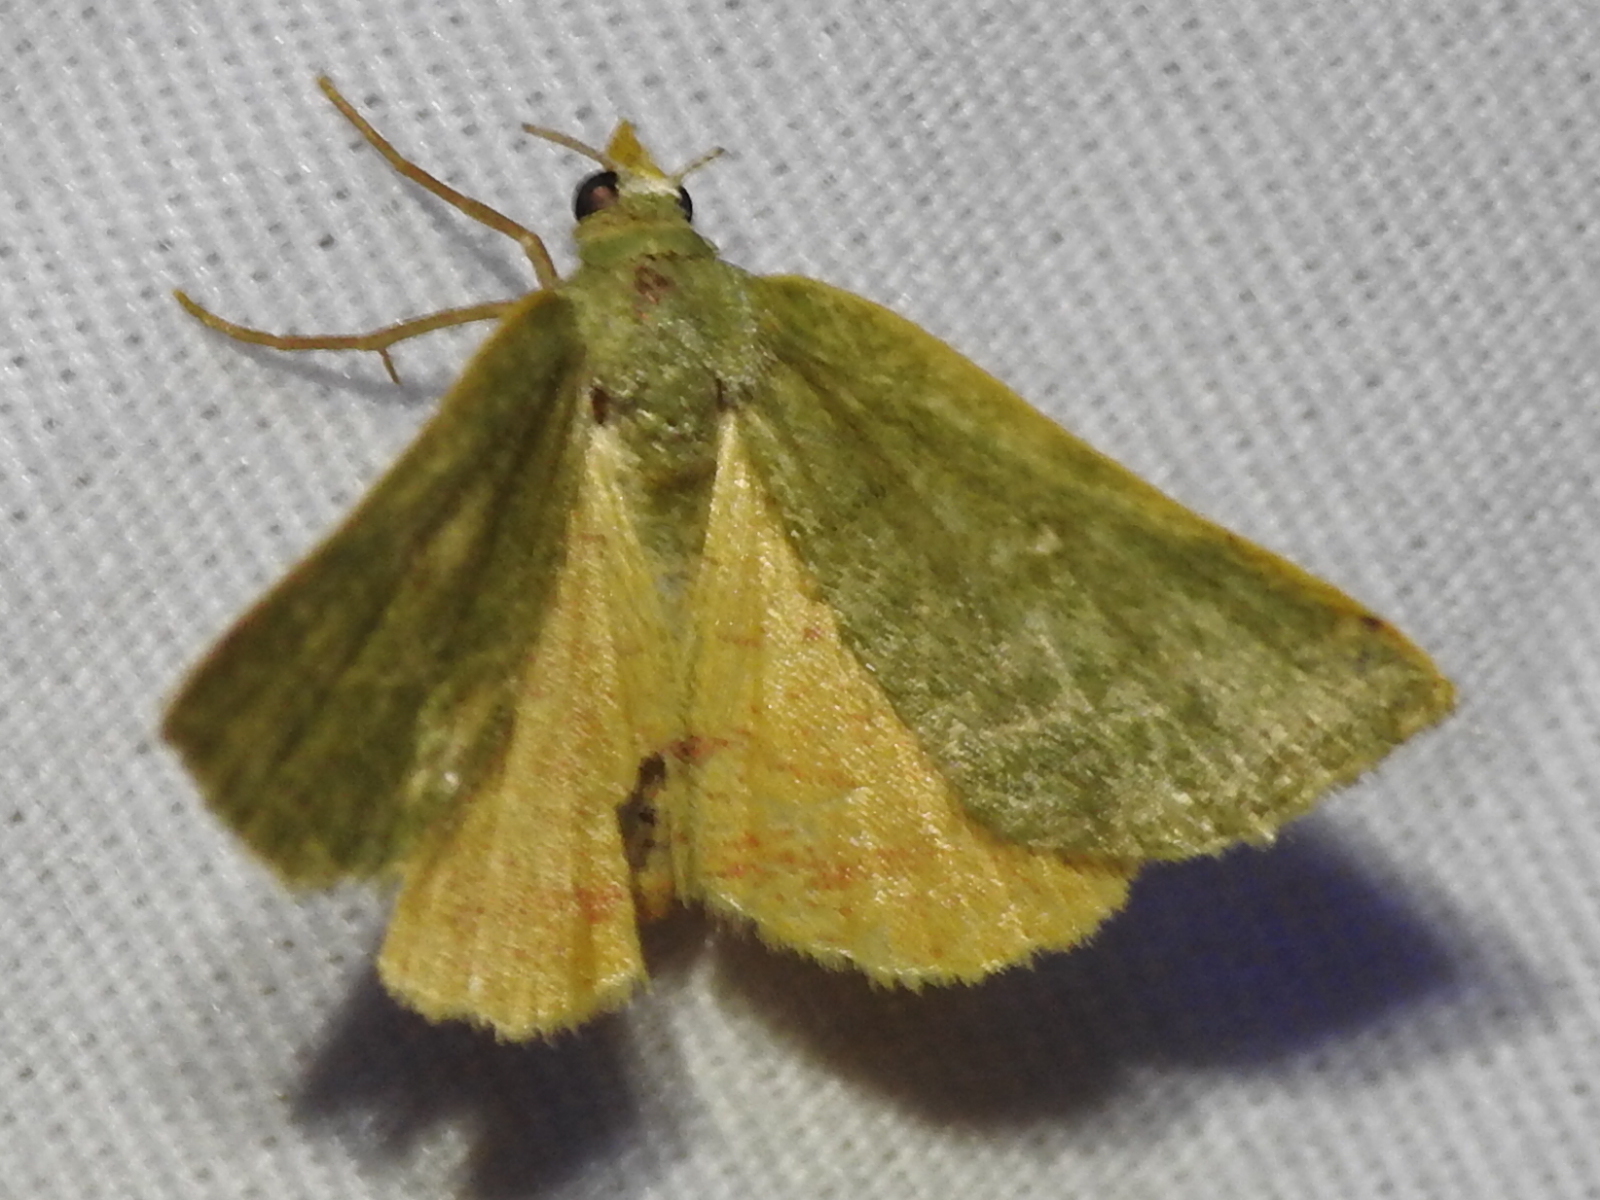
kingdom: Animalia
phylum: Arthropoda
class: Insecta
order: Lepidoptera
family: Geometridae
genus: Chloraspilates
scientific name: Chloraspilates bicoloraria
